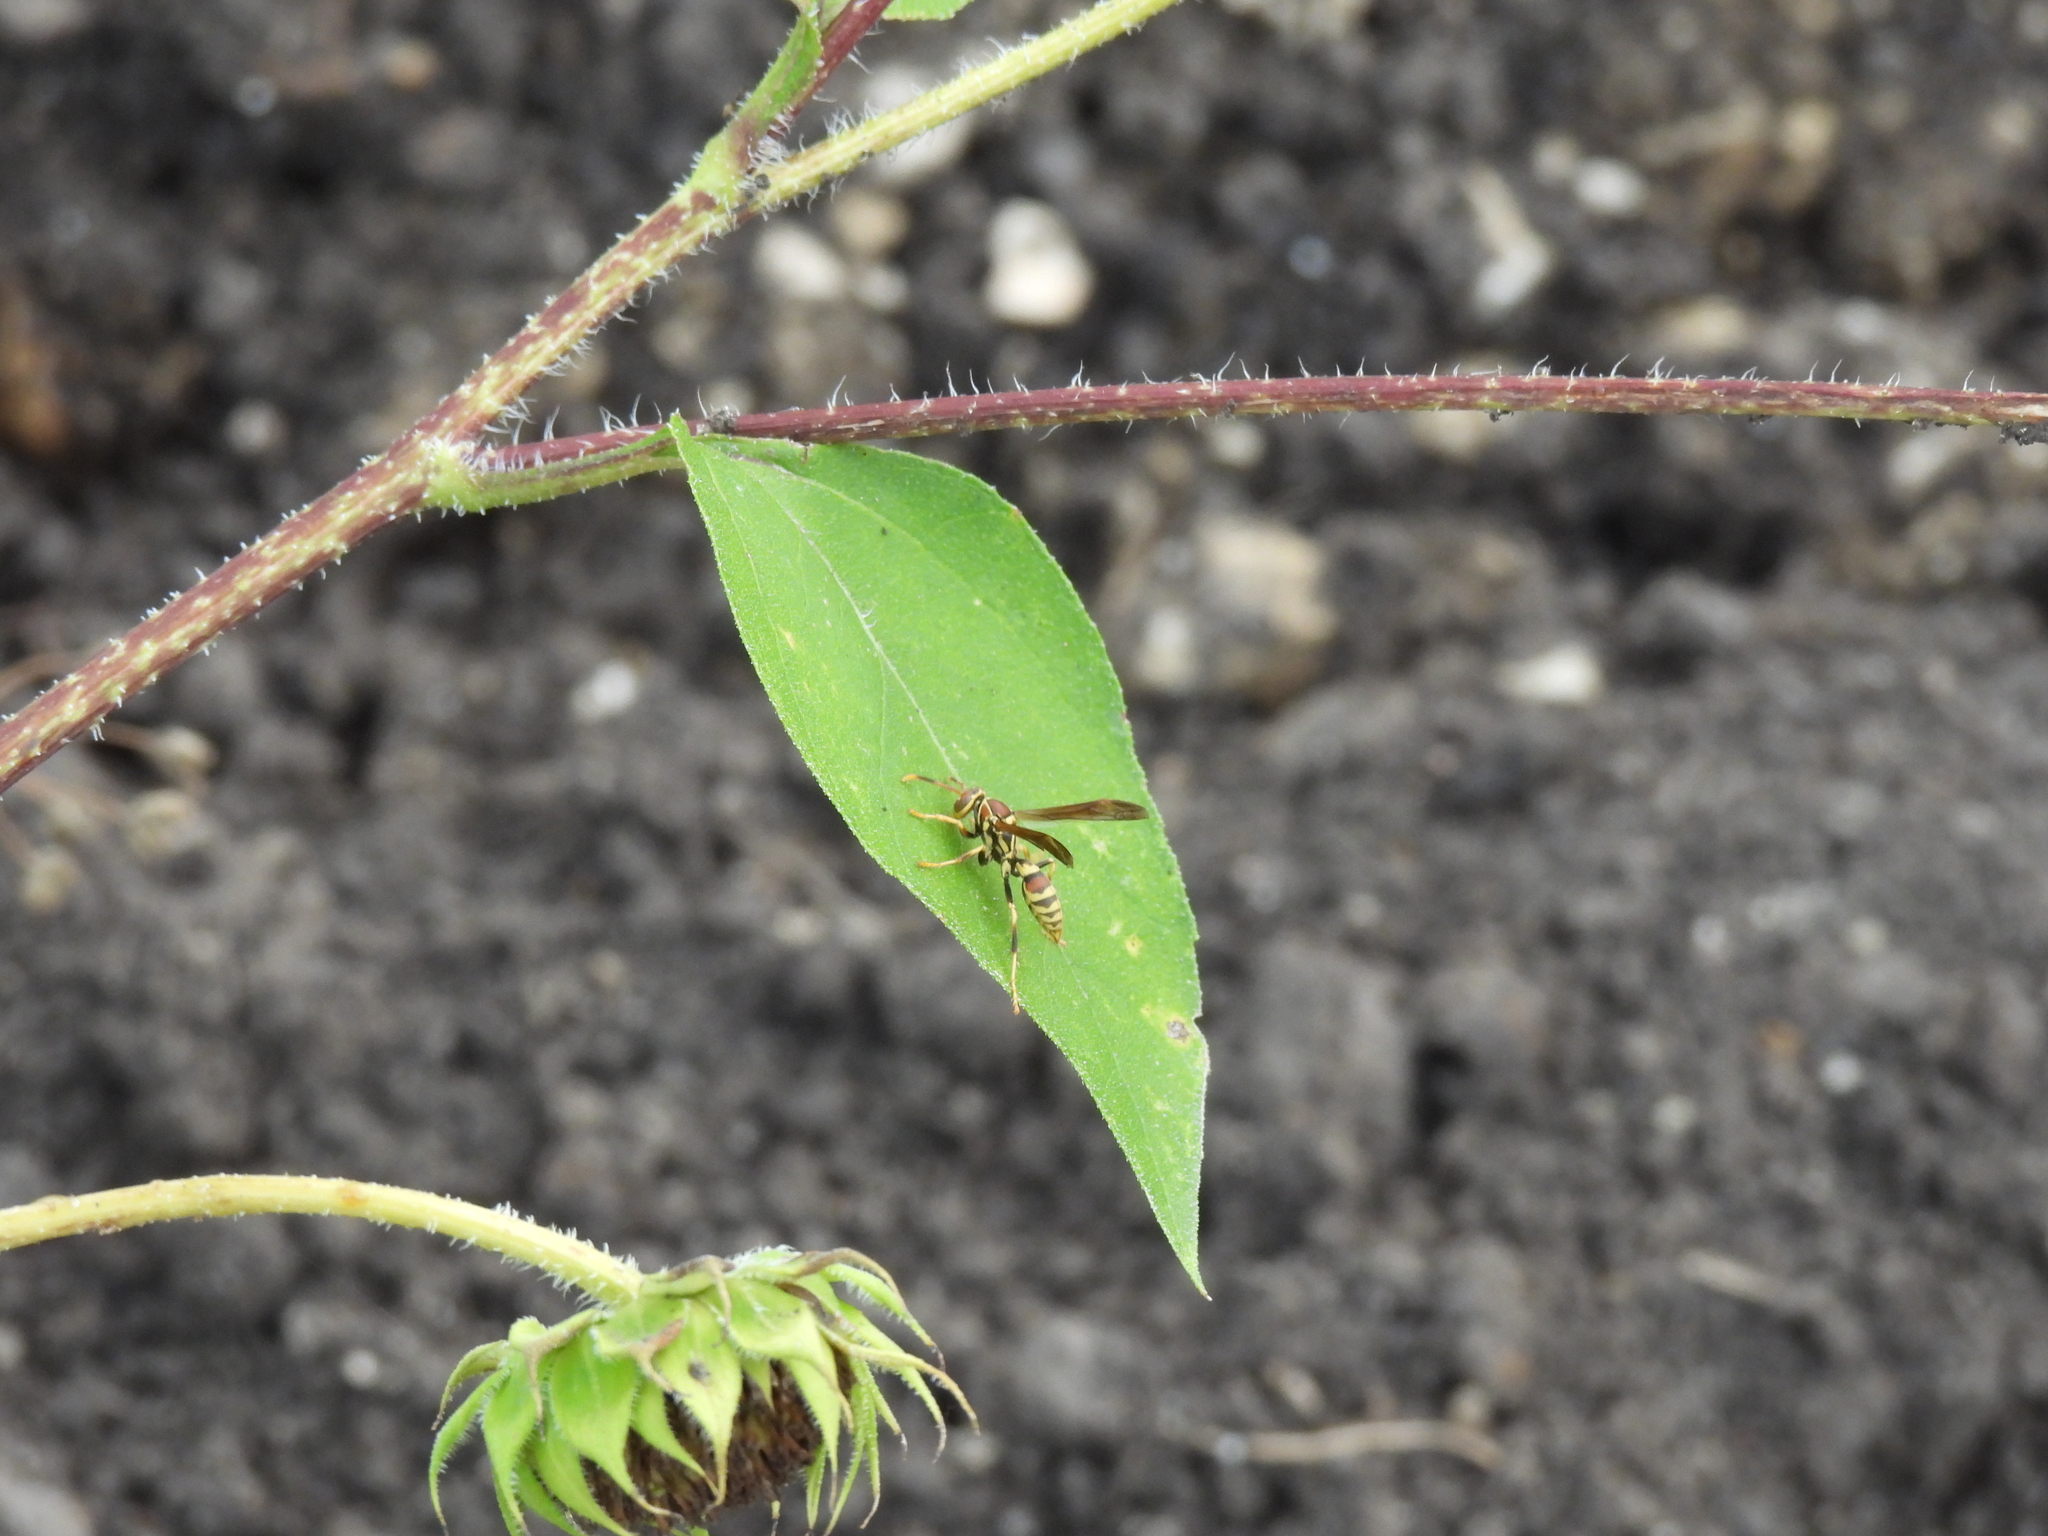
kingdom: Animalia
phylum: Arthropoda
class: Insecta
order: Hymenoptera
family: Eumenidae
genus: Polistes
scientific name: Polistes exclamans
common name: Paper wasp
